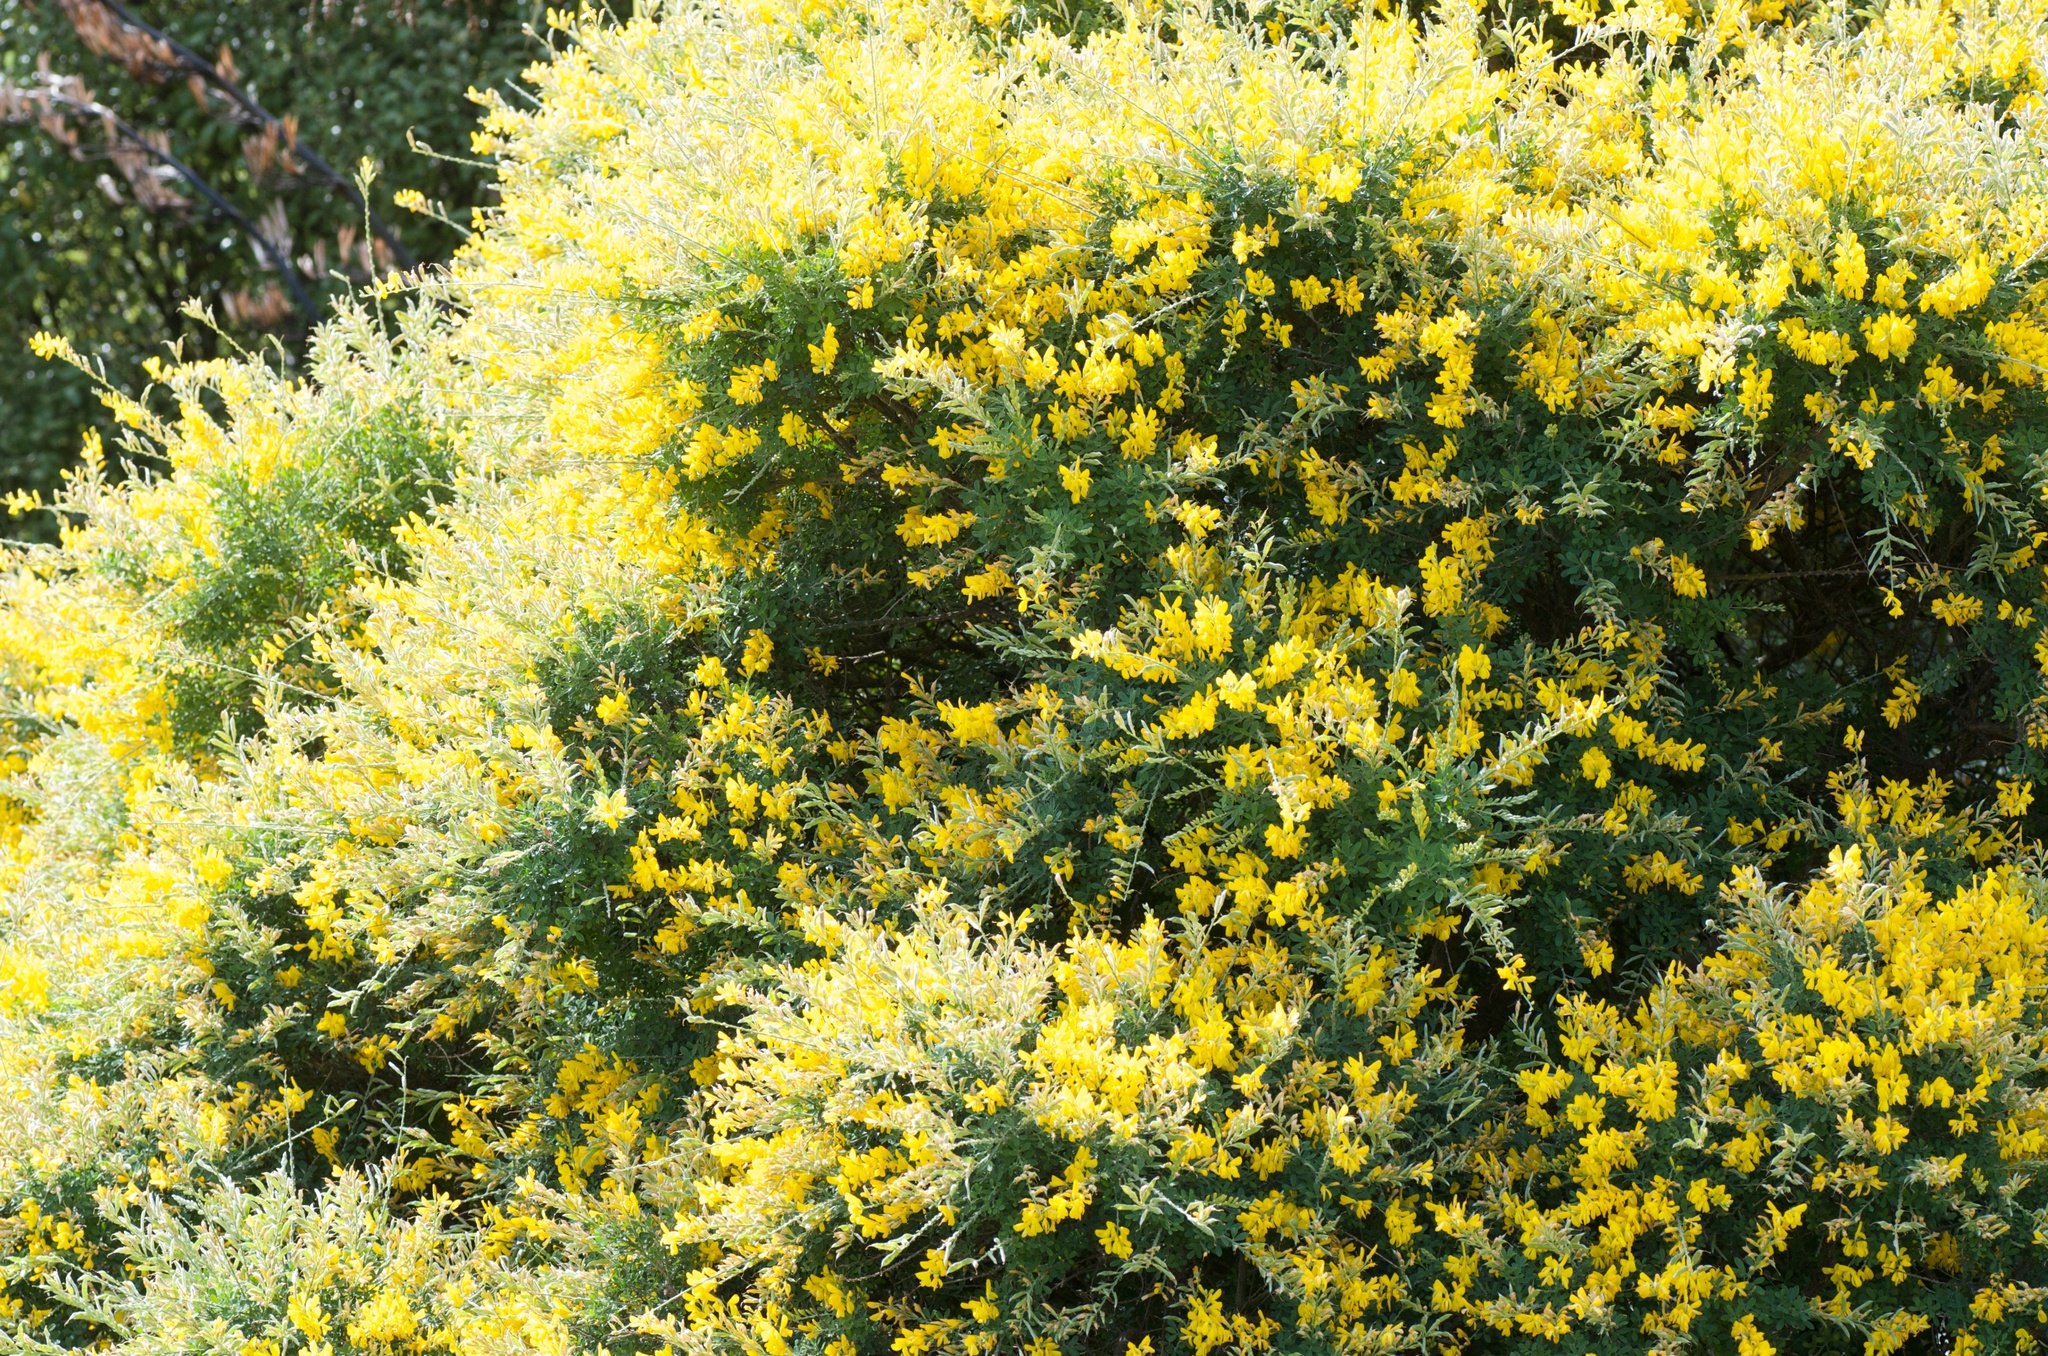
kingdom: Plantae
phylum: Tracheophyta
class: Magnoliopsida
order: Fabales
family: Fabaceae
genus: Genista
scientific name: Genista monspessulana
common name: Montpellier broom
